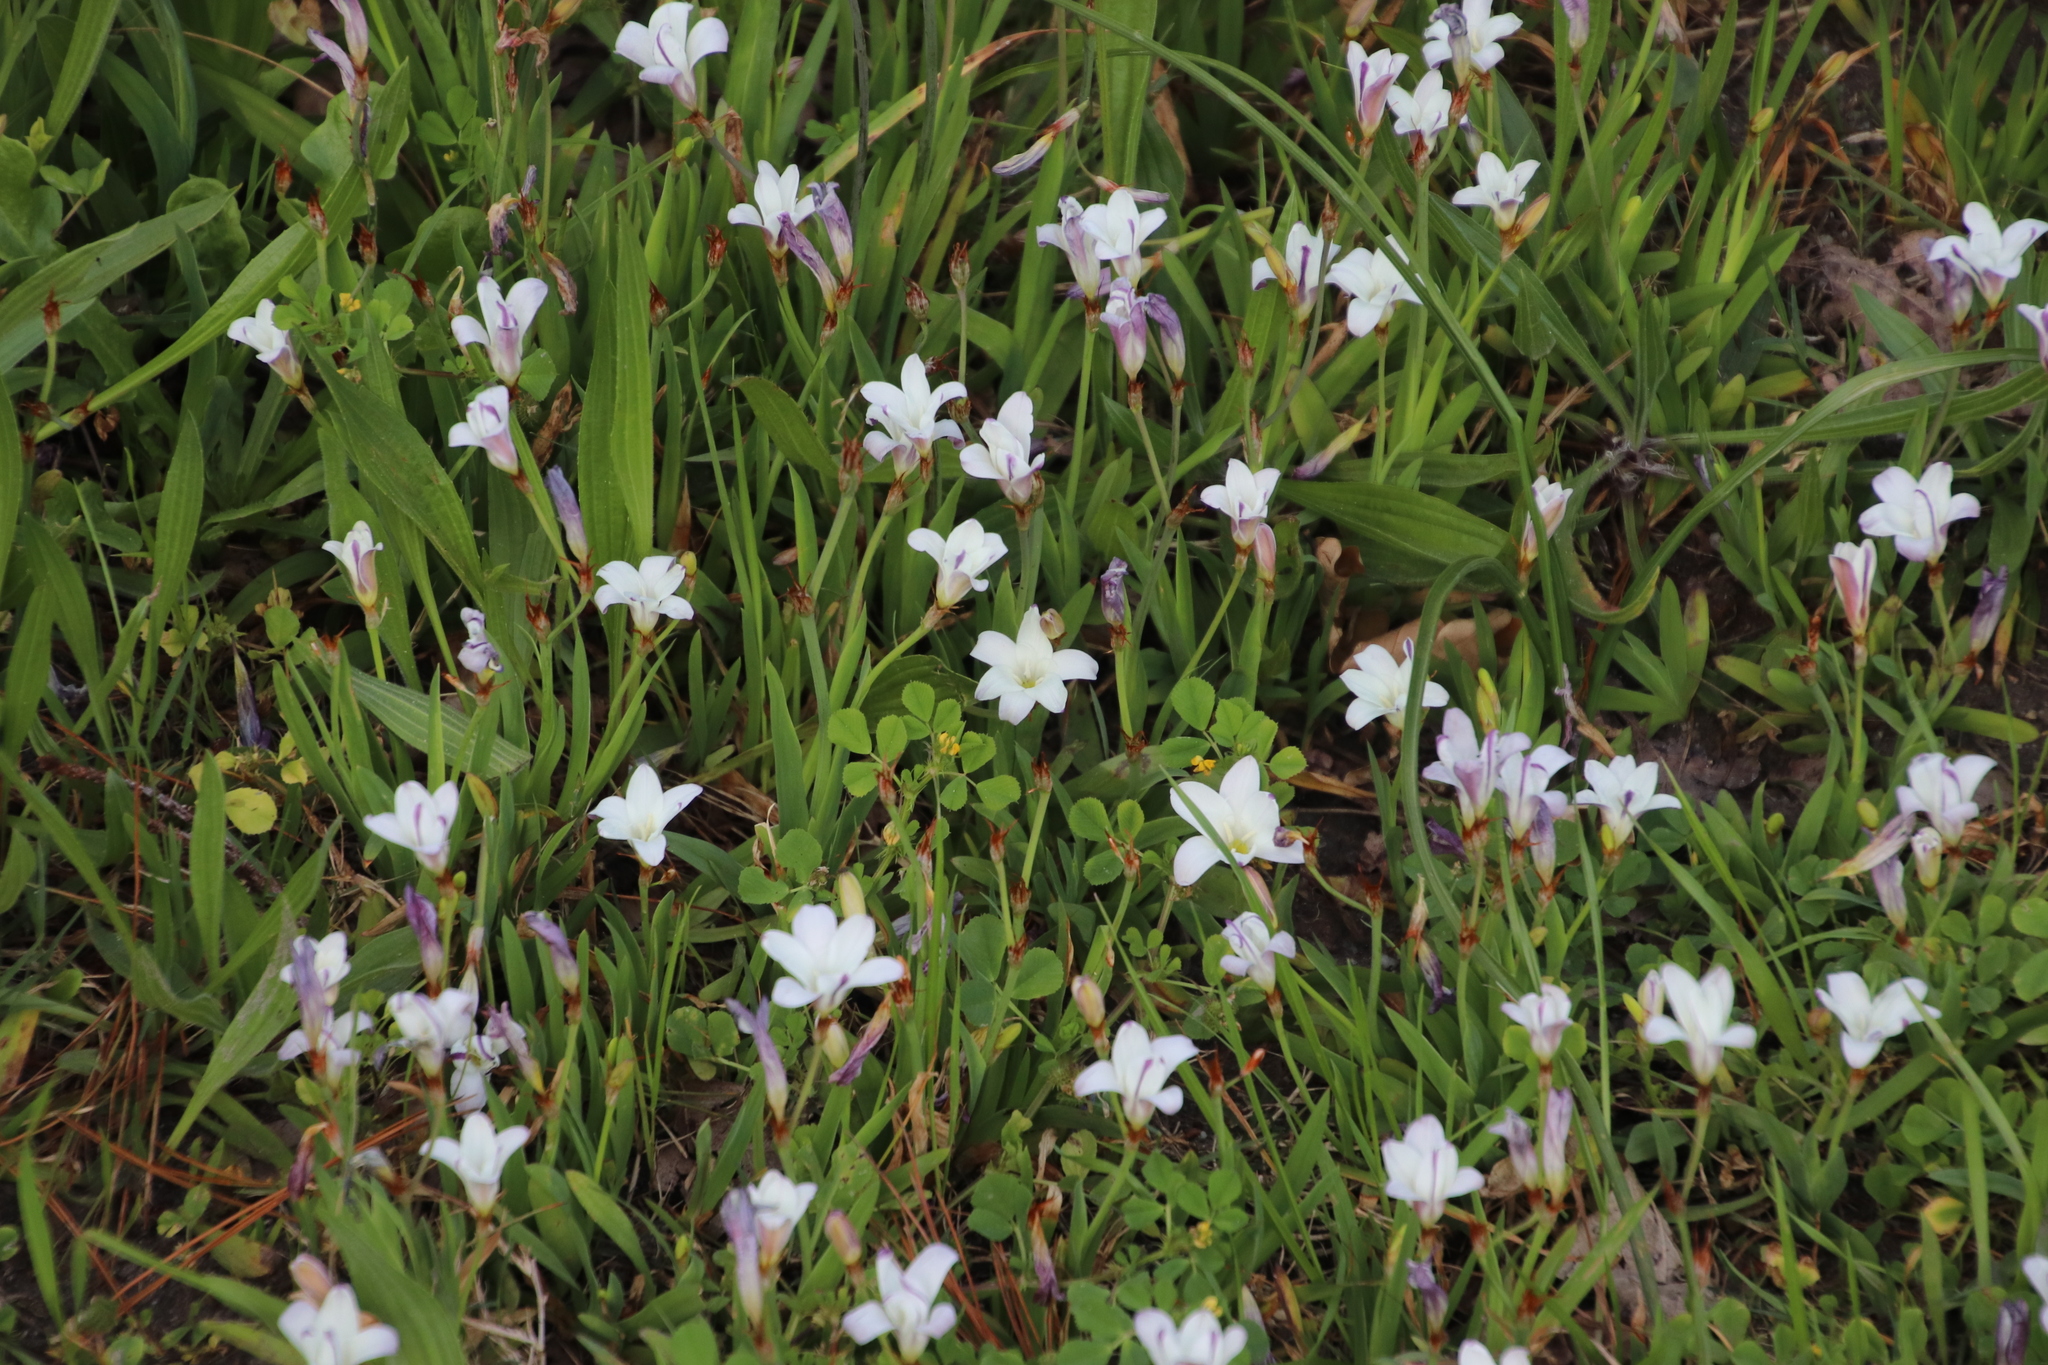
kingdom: Plantae
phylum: Tracheophyta
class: Liliopsida
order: Asparagales
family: Iridaceae
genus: Sparaxis
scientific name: Sparaxis bulbifera
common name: Harlequin-flower
